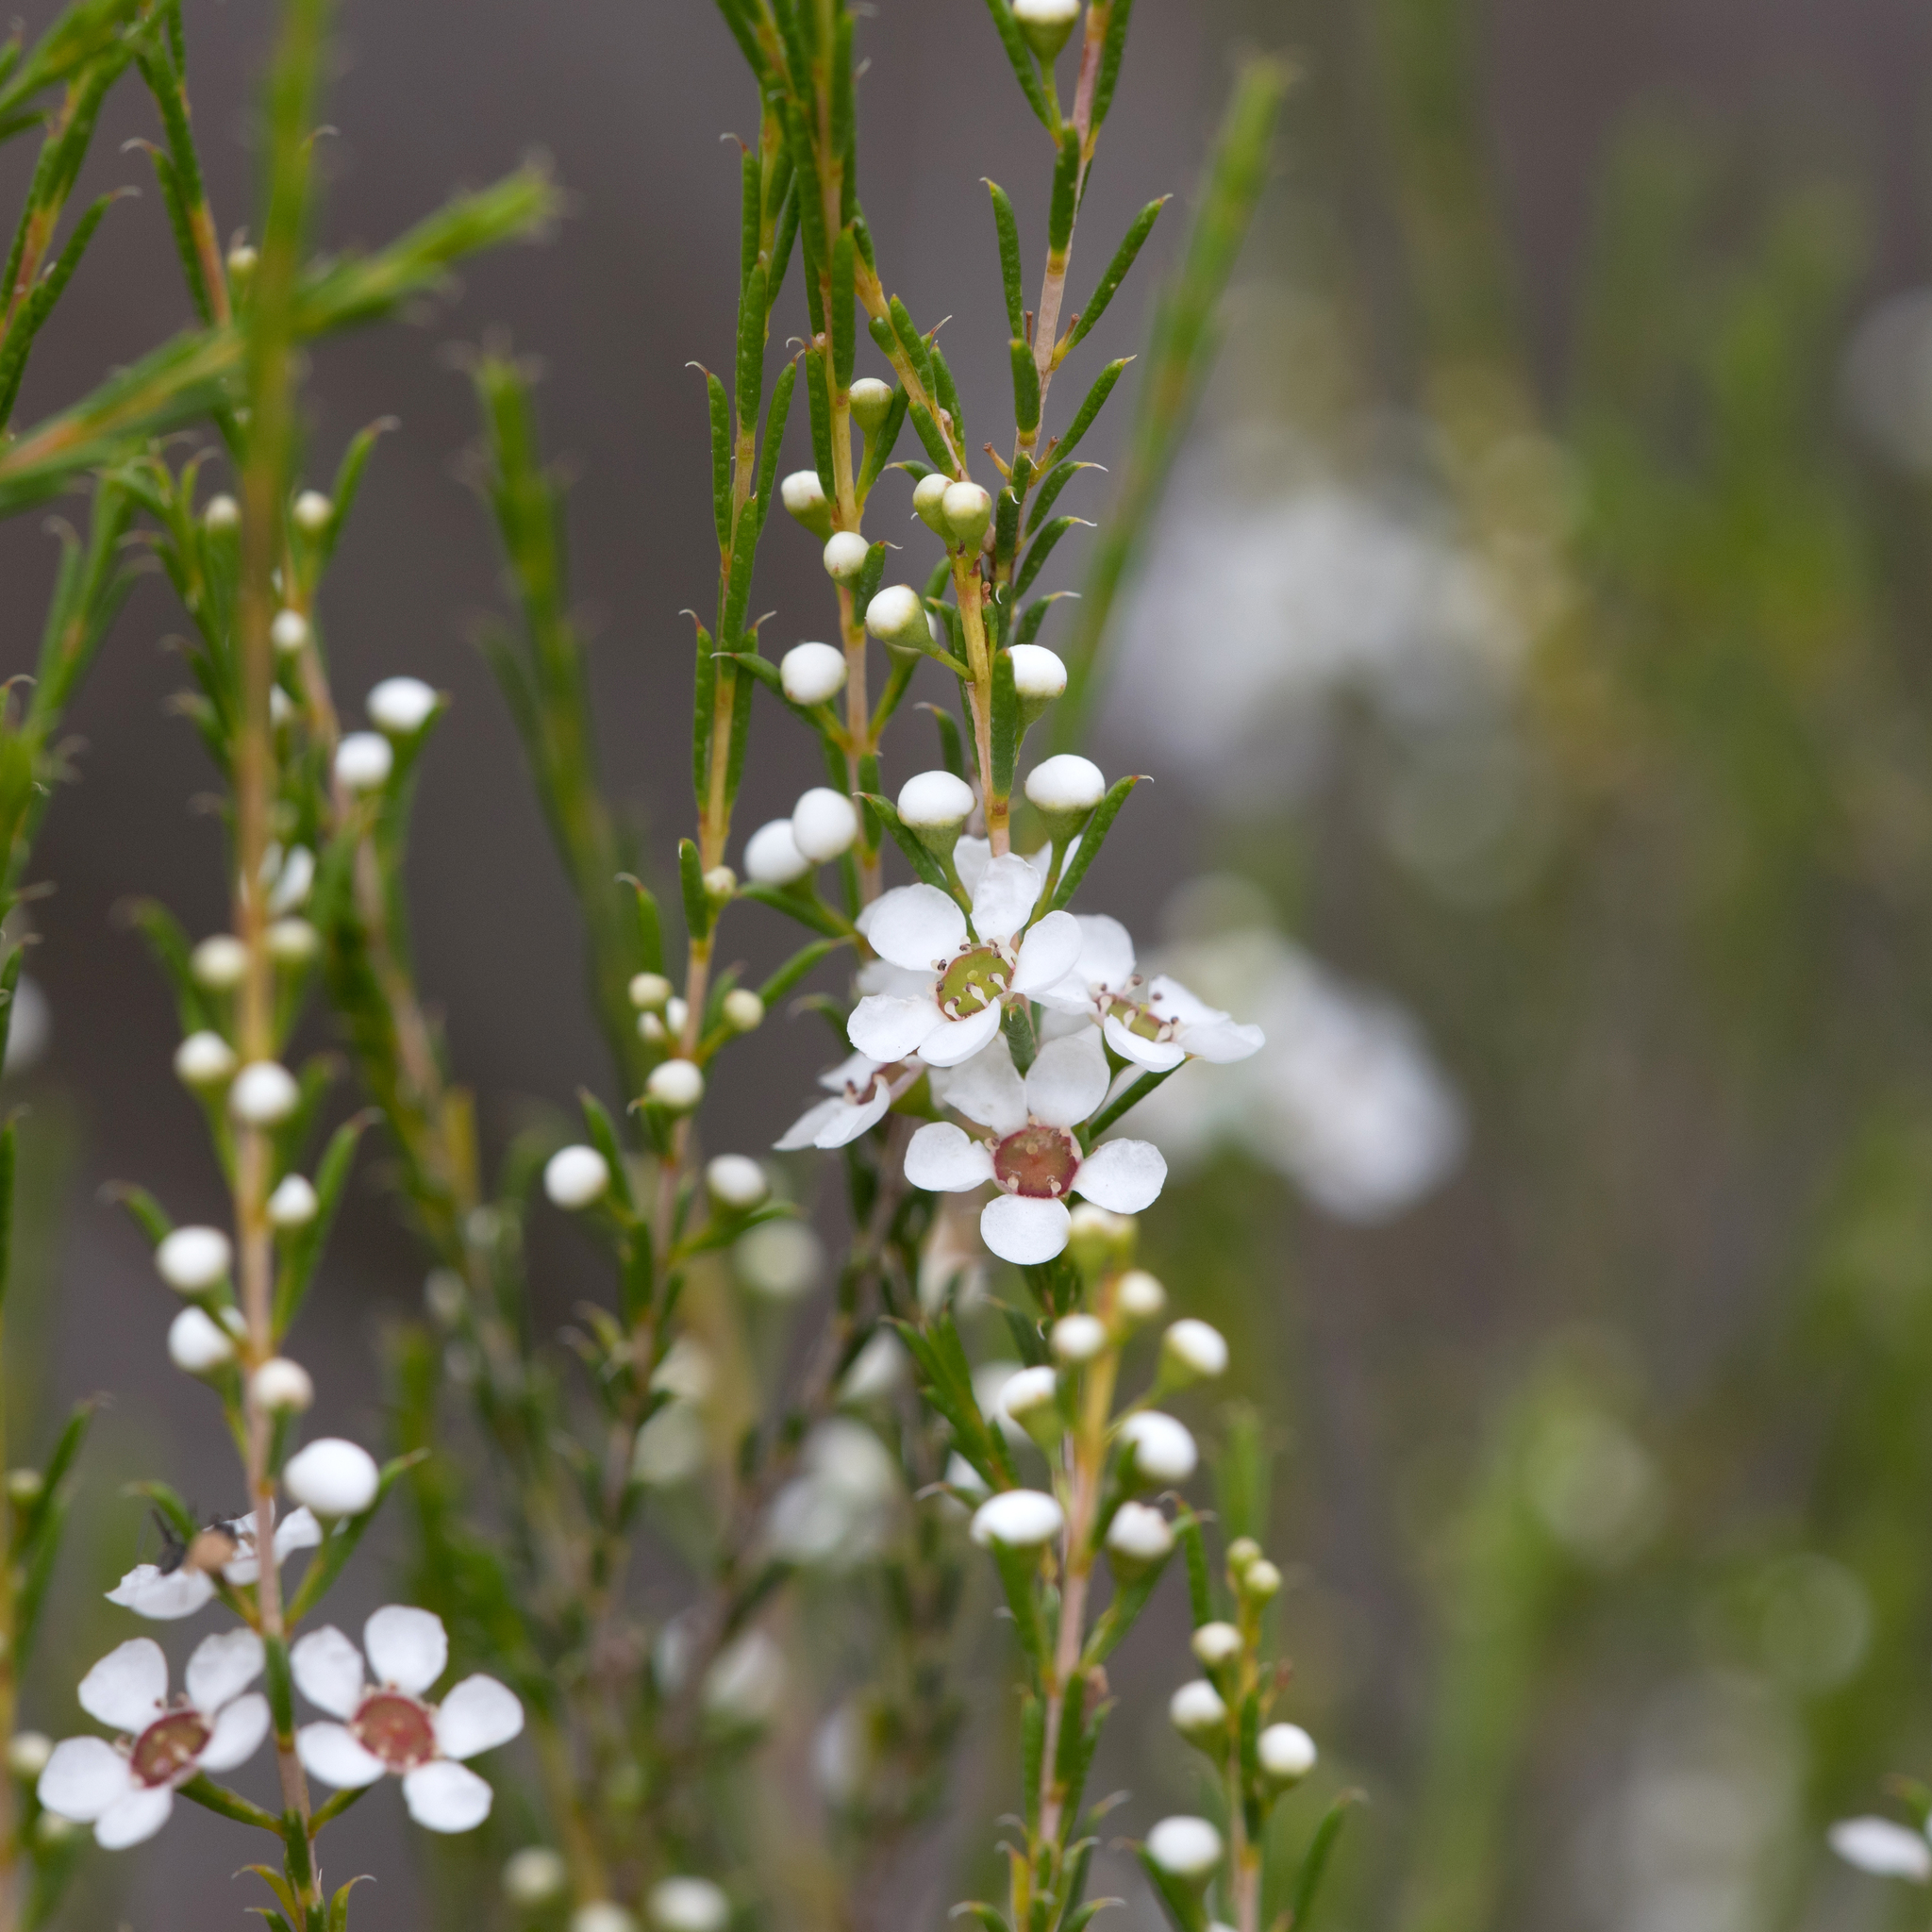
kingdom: Plantae
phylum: Tracheophyta
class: Magnoliopsida
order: Myrtales
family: Myrtaceae
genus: Hysterobaeckea
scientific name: Hysterobaeckea behrii
